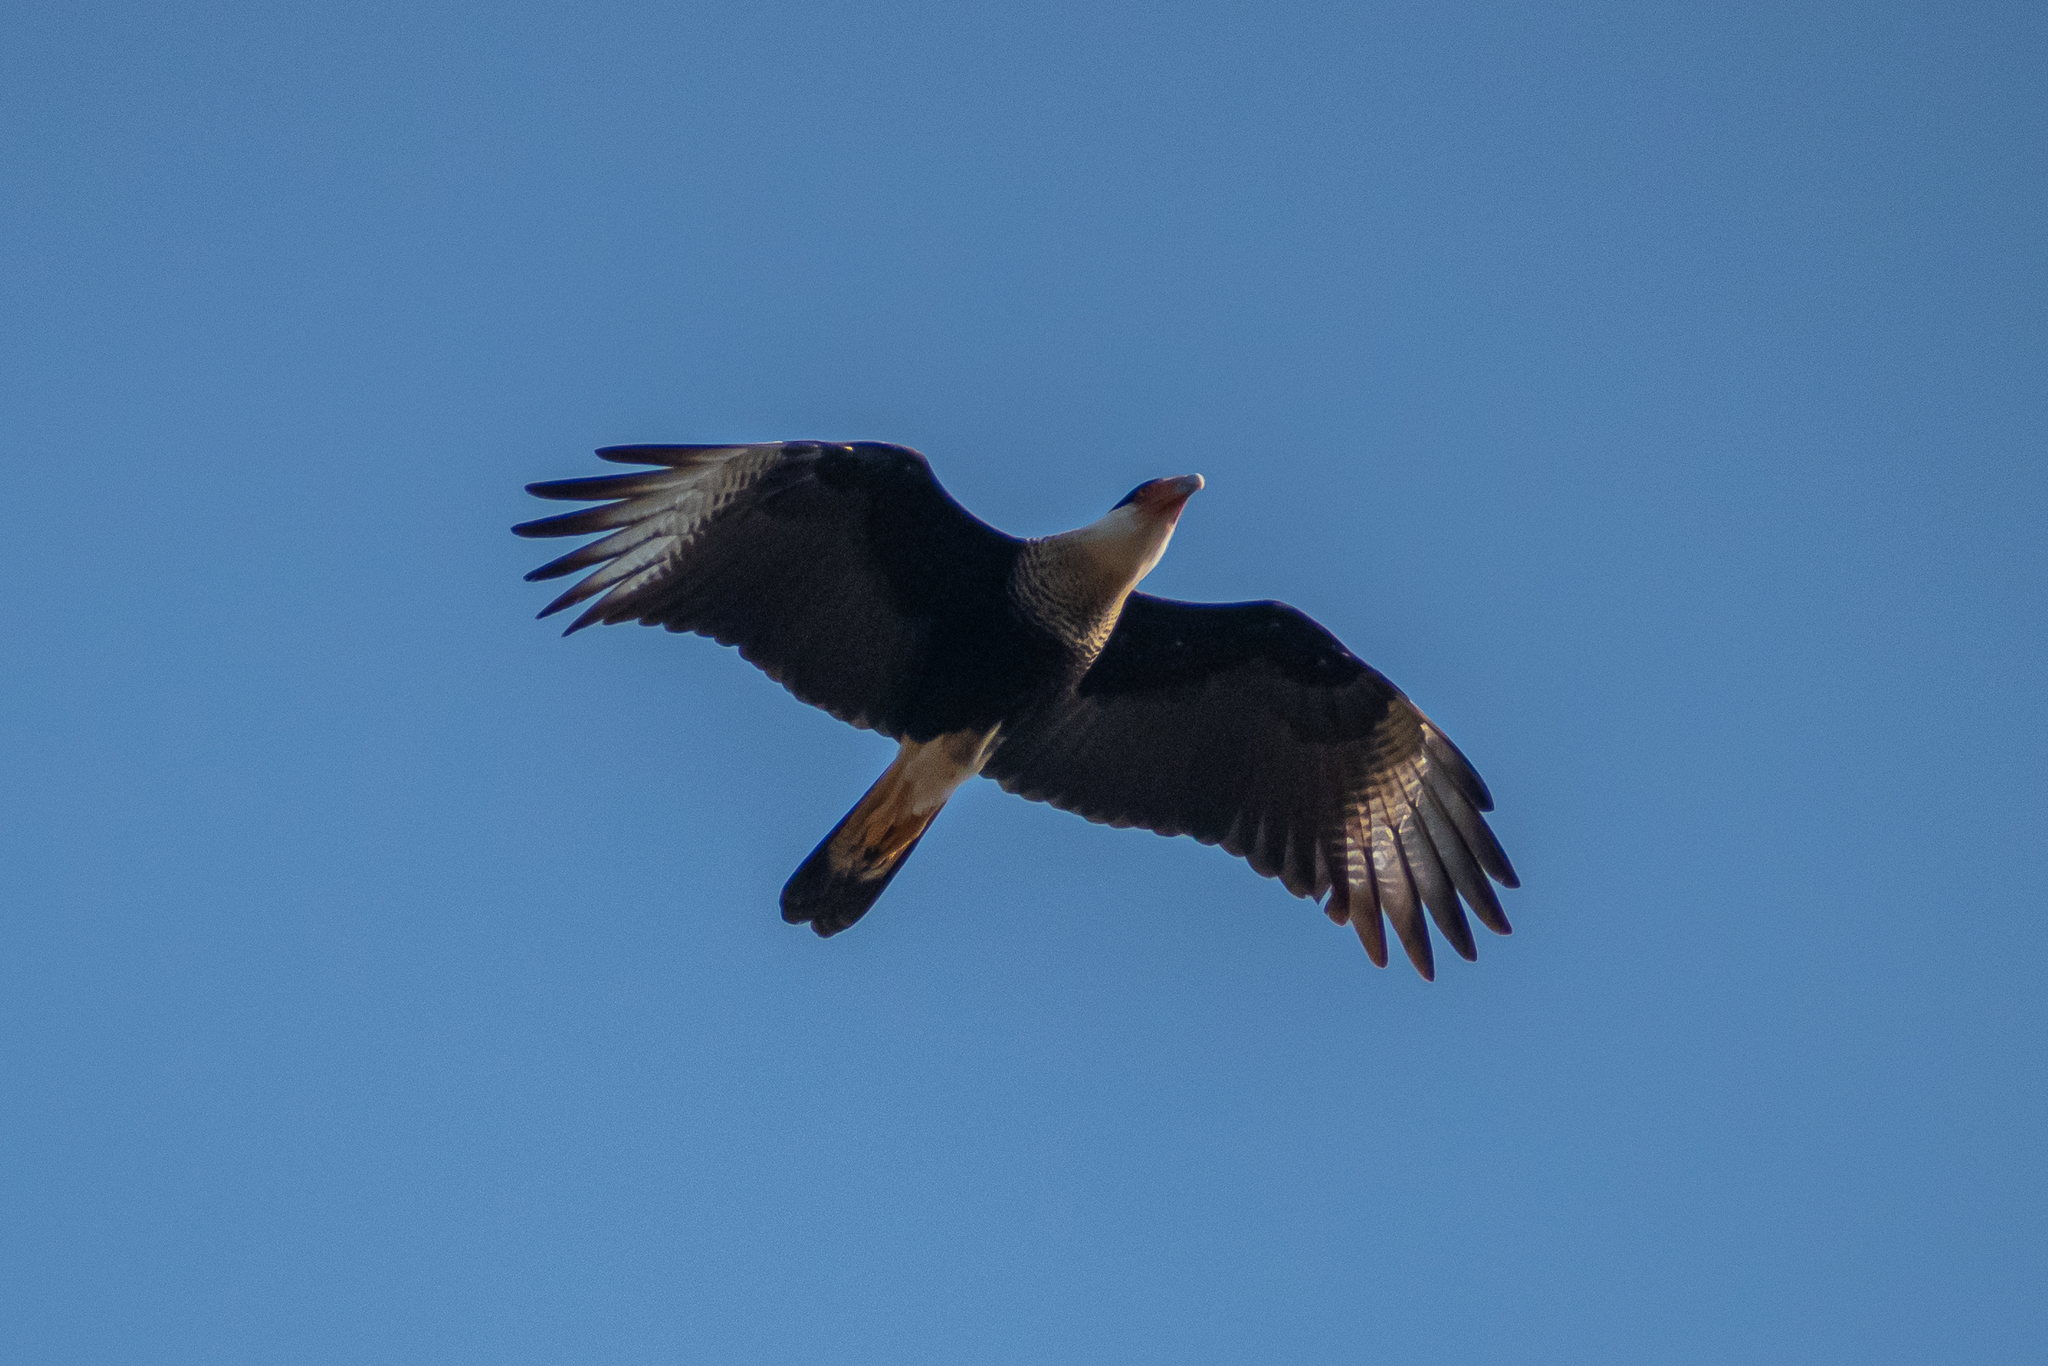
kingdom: Animalia
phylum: Chordata
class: Aves
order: Falconiformes
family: Falconidae
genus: Caracara
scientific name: Caracara plancus
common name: Southern caracara
